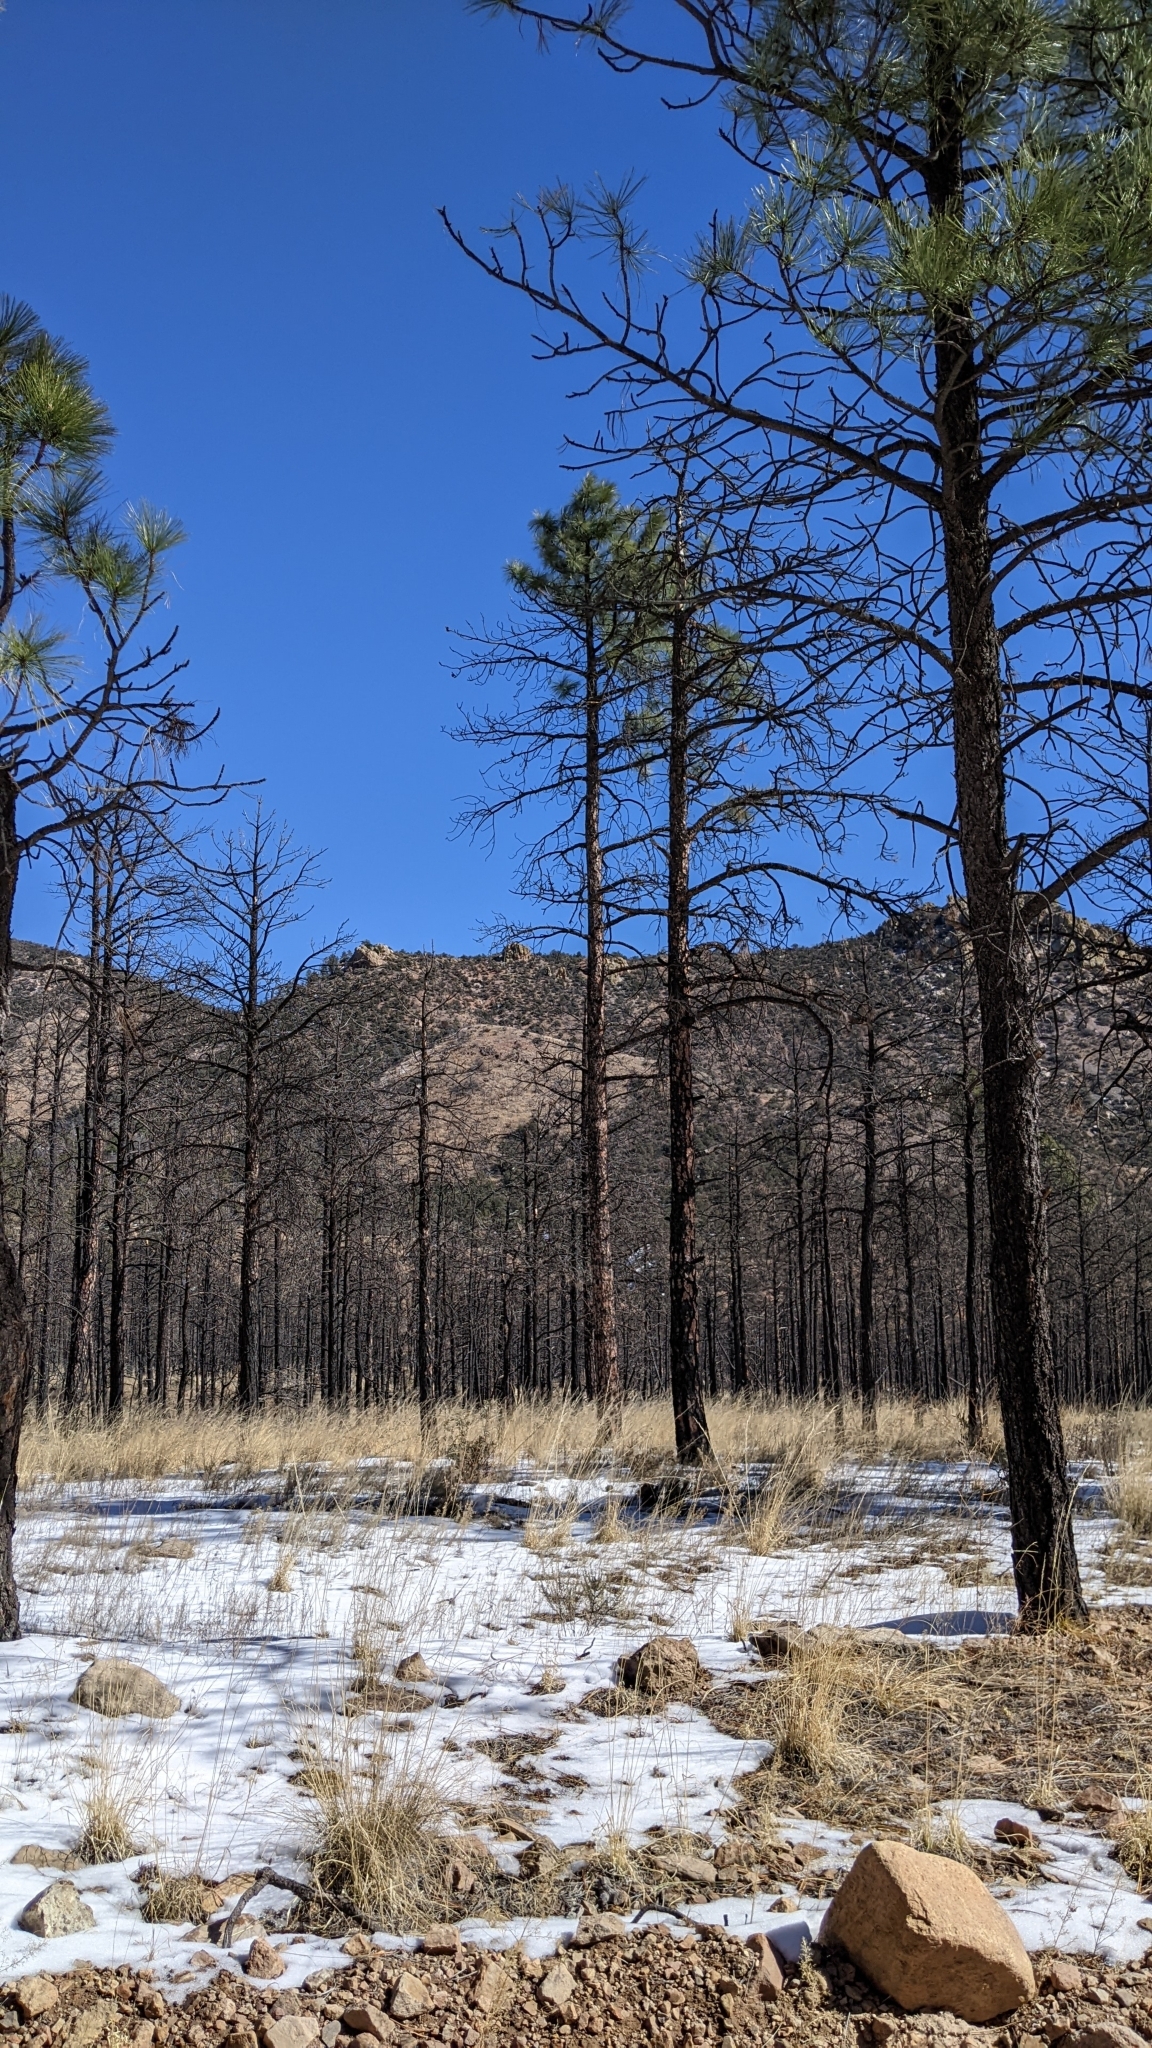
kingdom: Plantae
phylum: Tracheophyta
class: Pinopsida
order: Pinales
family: Pinaceae
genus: Pinus
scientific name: Pinus ponderosa
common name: Western yellow-pine
